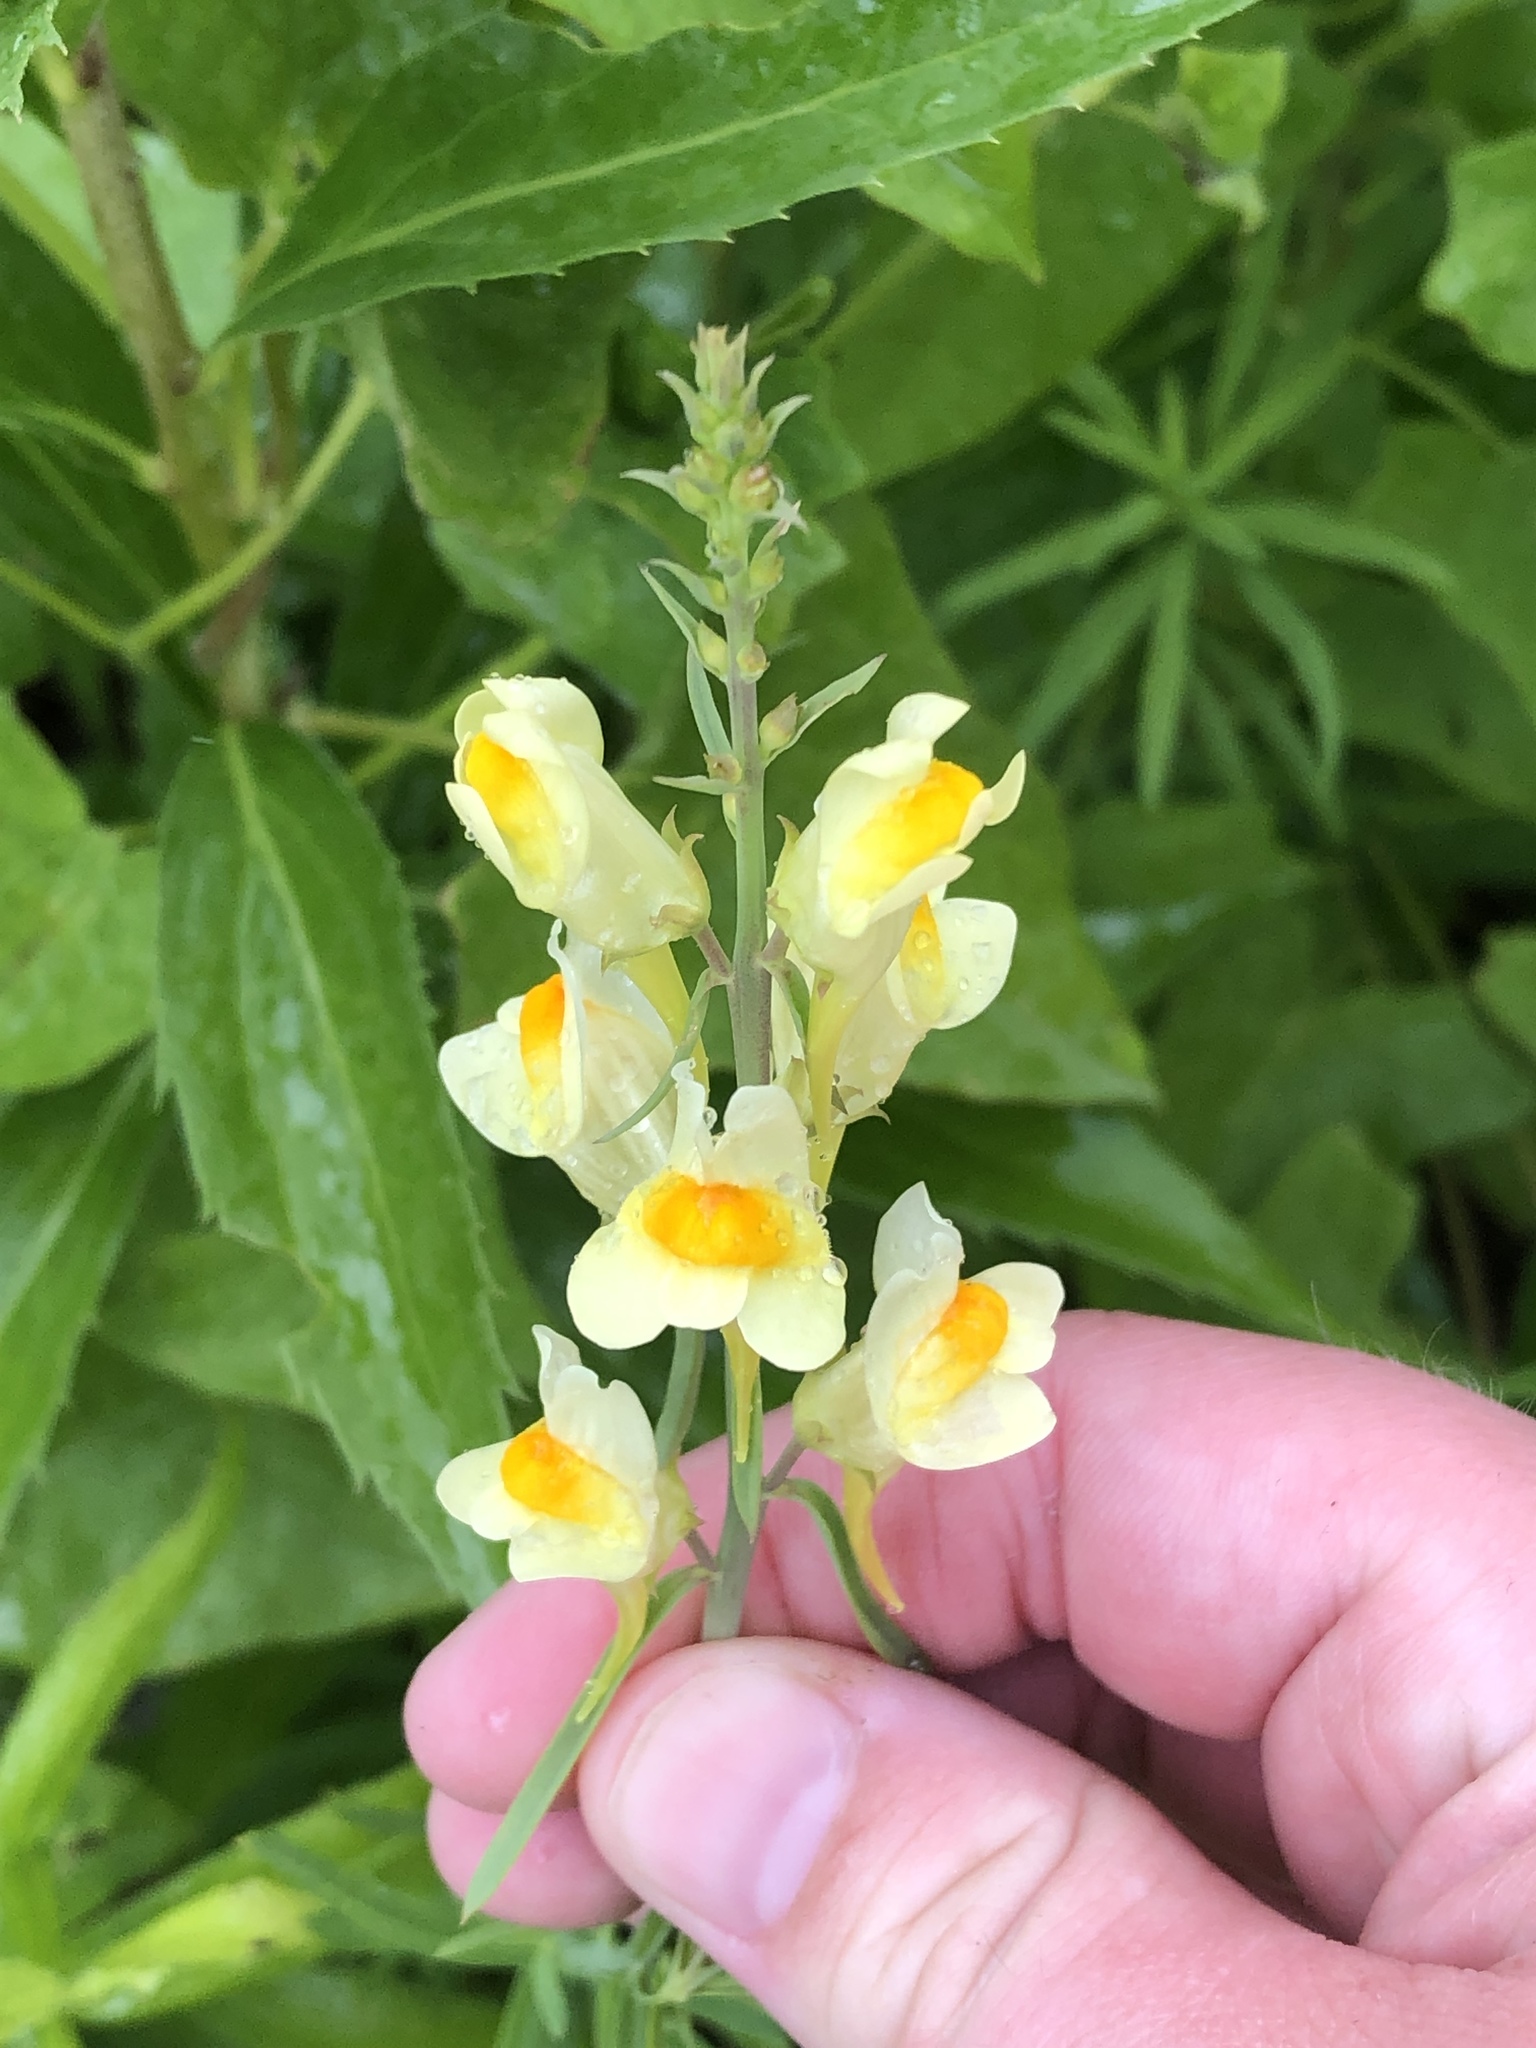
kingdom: Plantae
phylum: Tracheophyta
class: Magnoliopsida
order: Lamiales
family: Plantaginaceae
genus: Linaria
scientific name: Linaria vulgaris
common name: Butter and eggs
